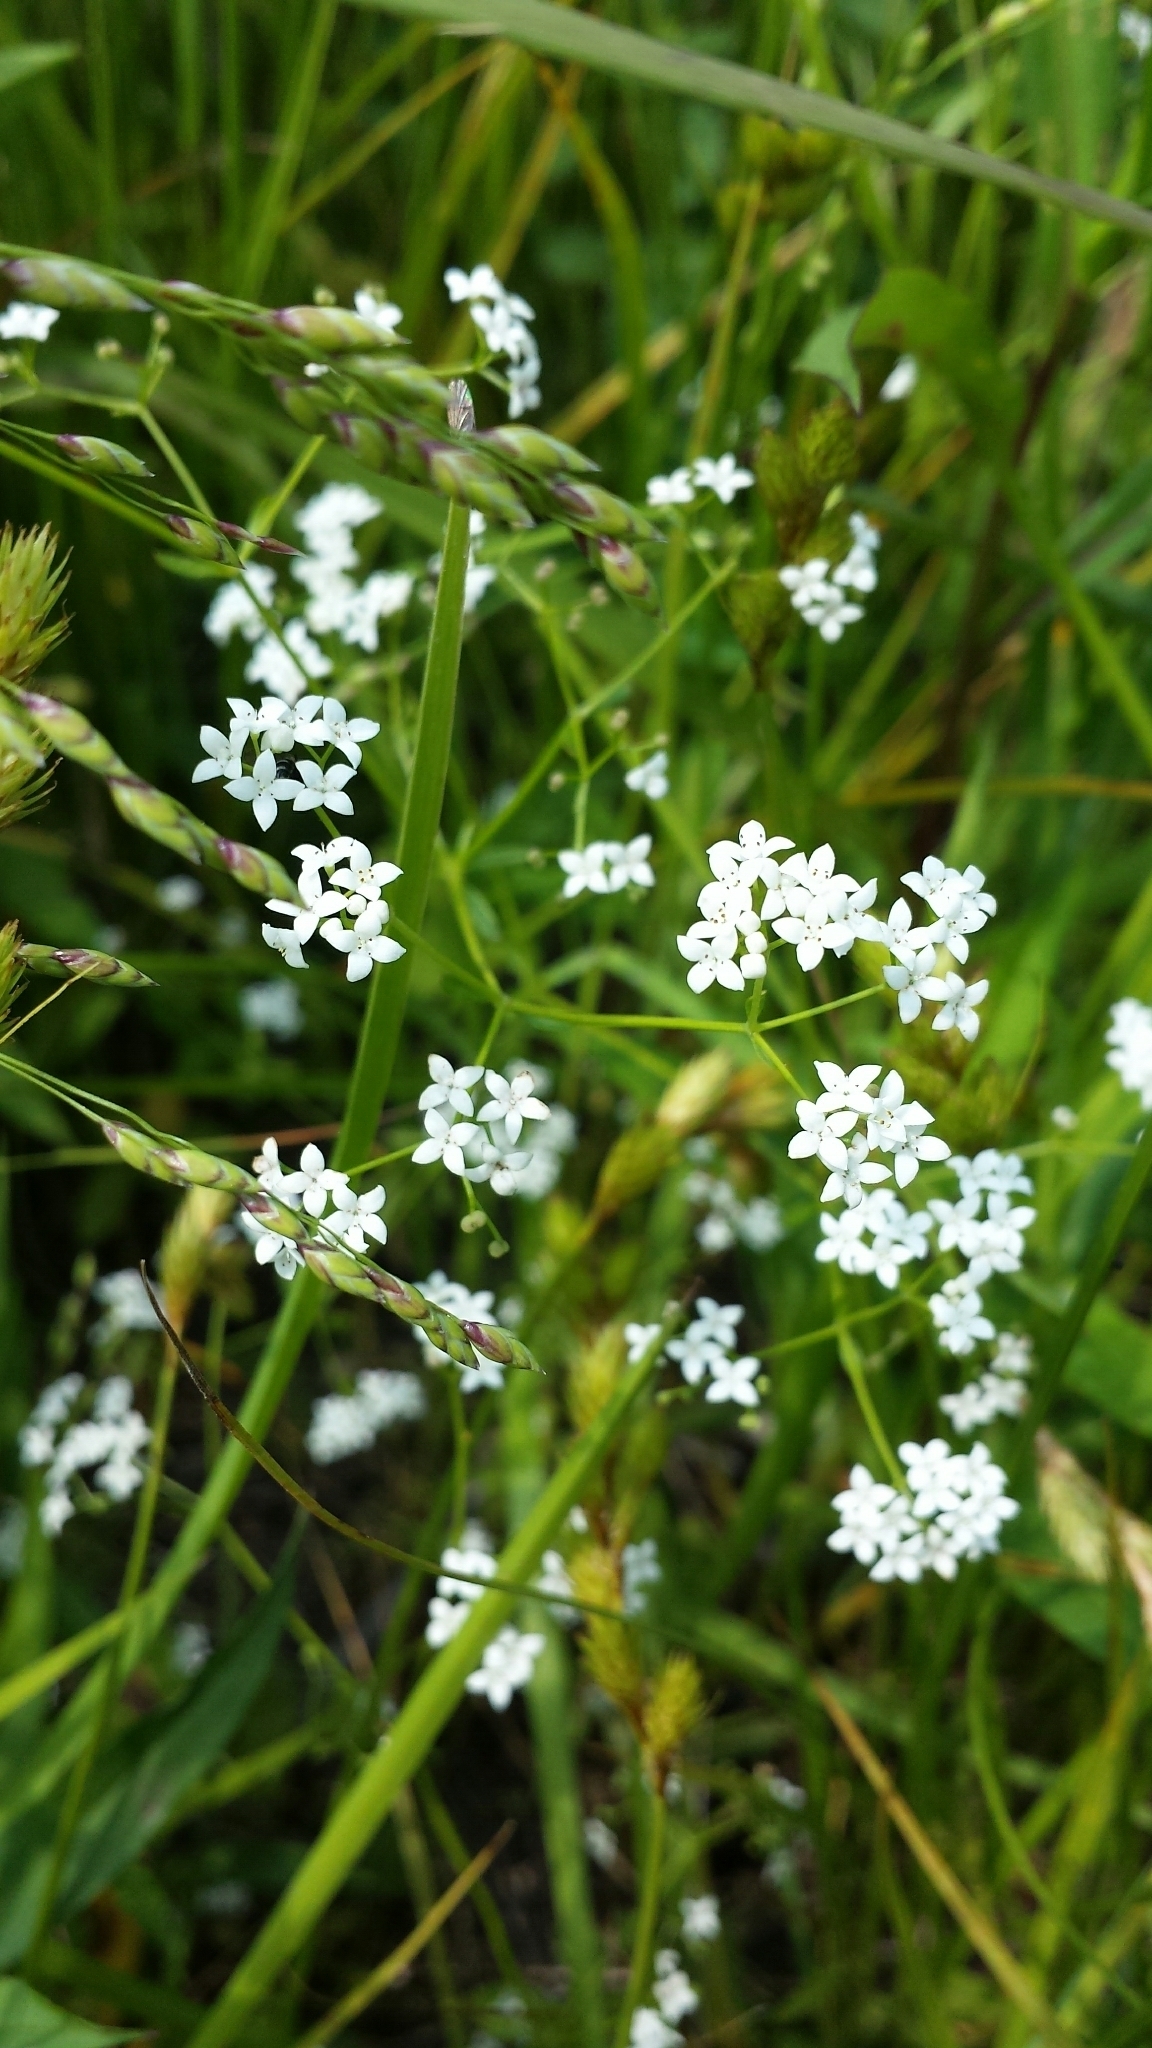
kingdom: Plantae
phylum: Tracheophyta
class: Magnoliopsida
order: Gentianales
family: Rubiaceae
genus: Galium
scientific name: Galium palustre
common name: Common marsh-bedstraw
